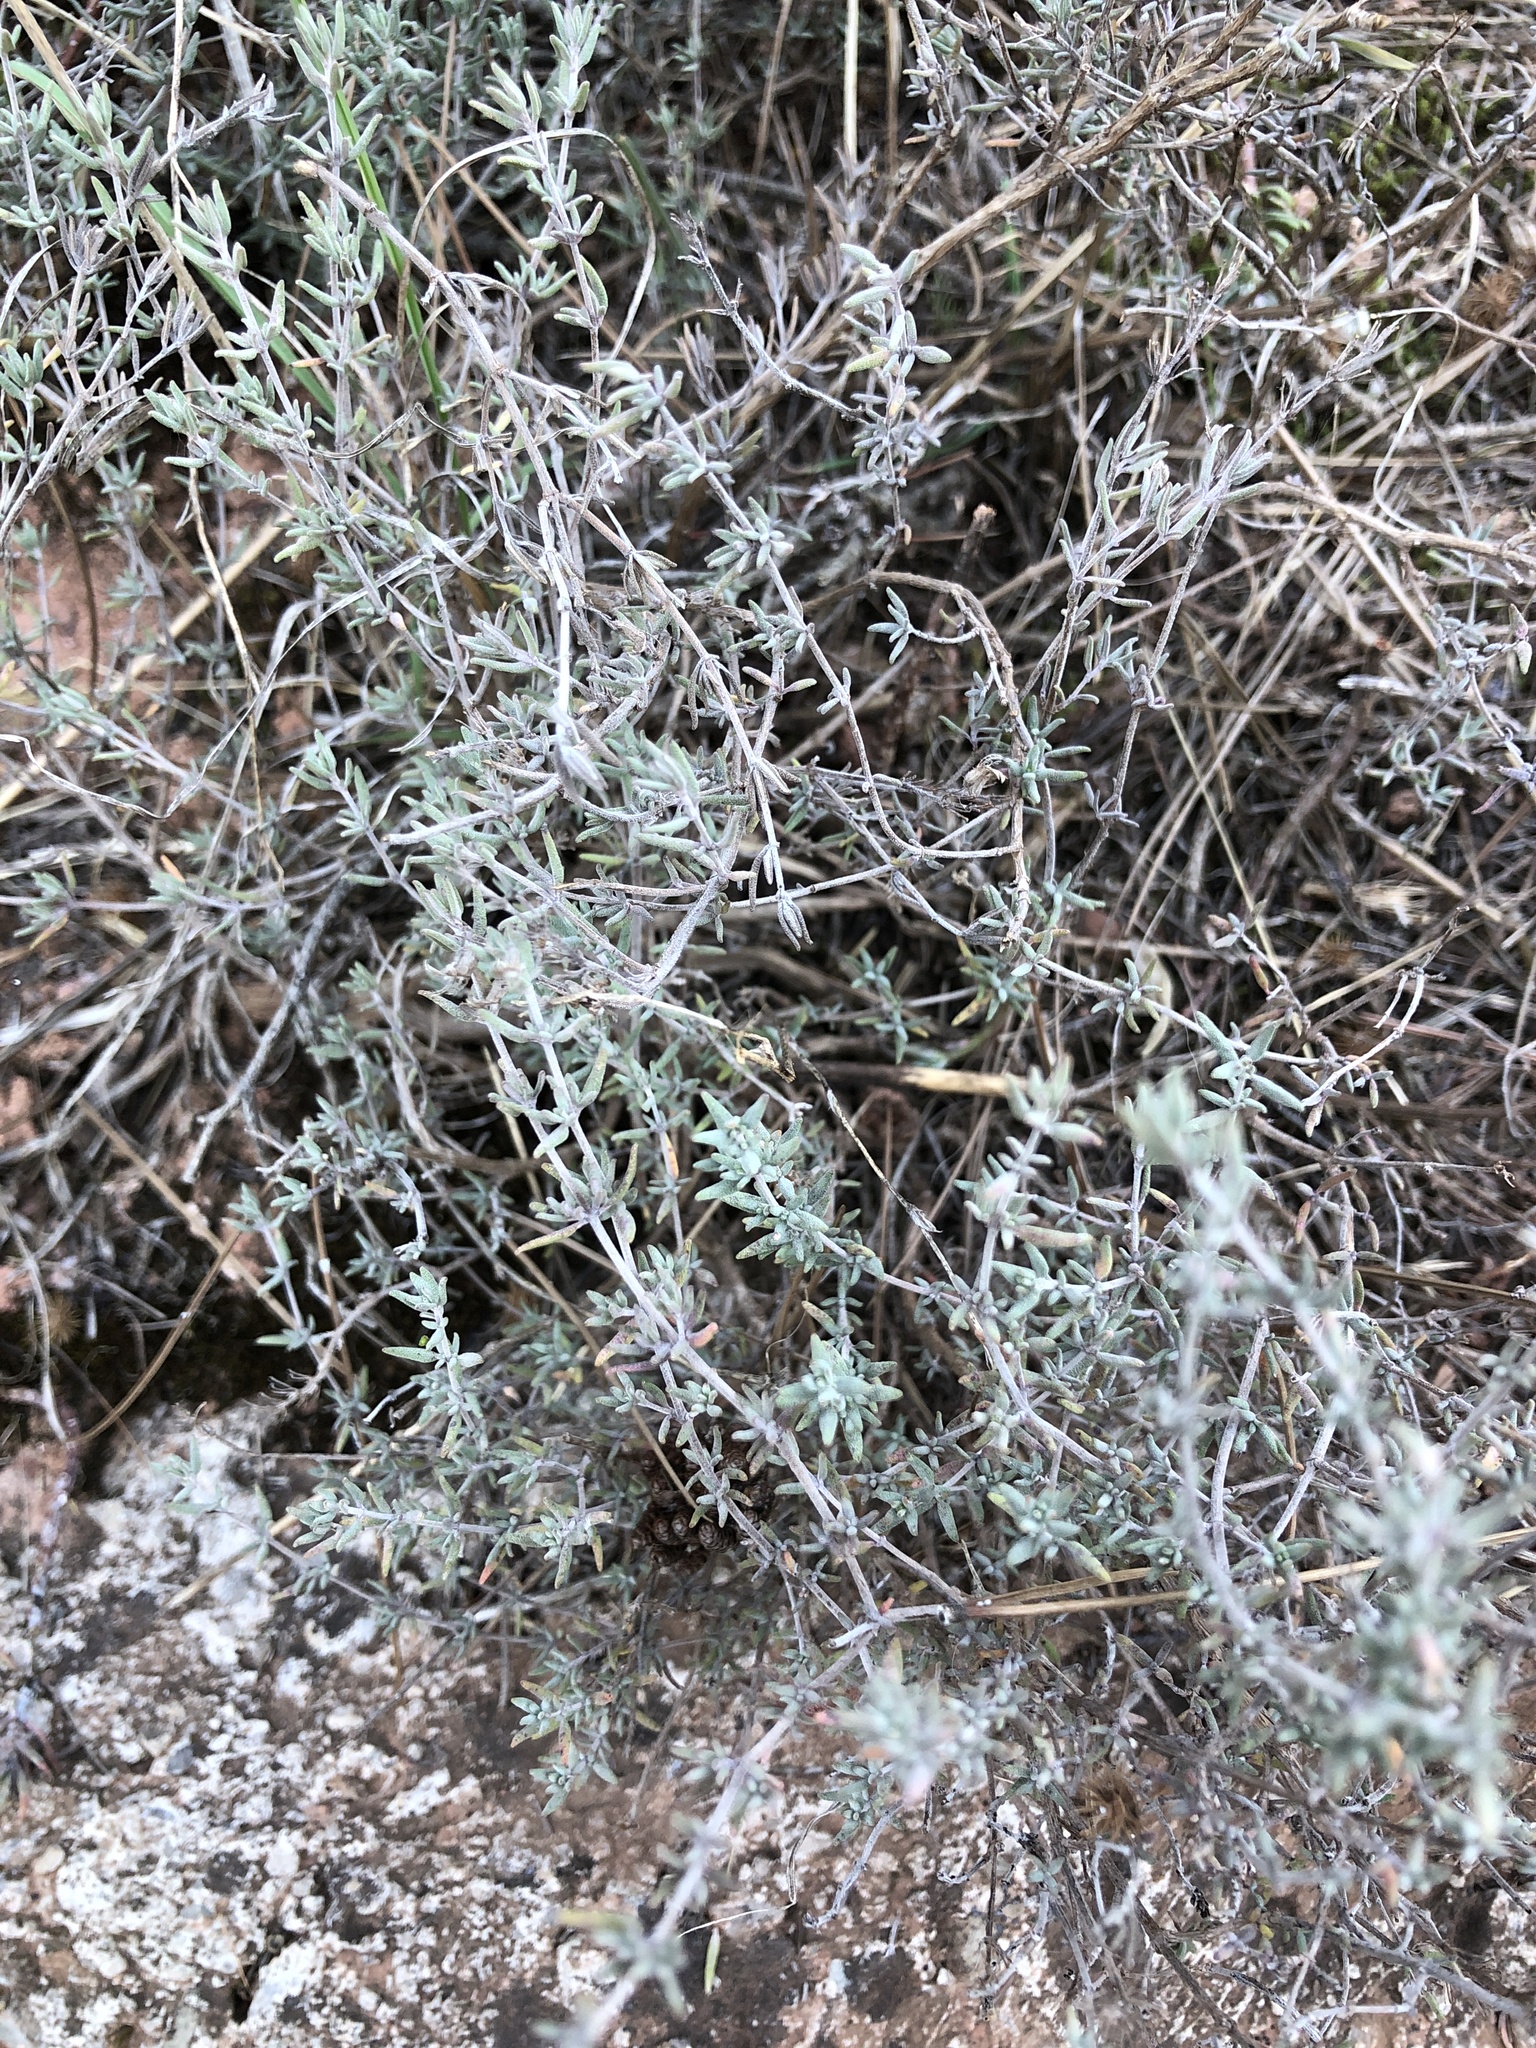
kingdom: Plantae
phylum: Tracheophyta
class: Magnoliopsida
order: Lamiales
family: Lamiaceae
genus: Thymus
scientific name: Thymus vulgaris
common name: Garden thyme
